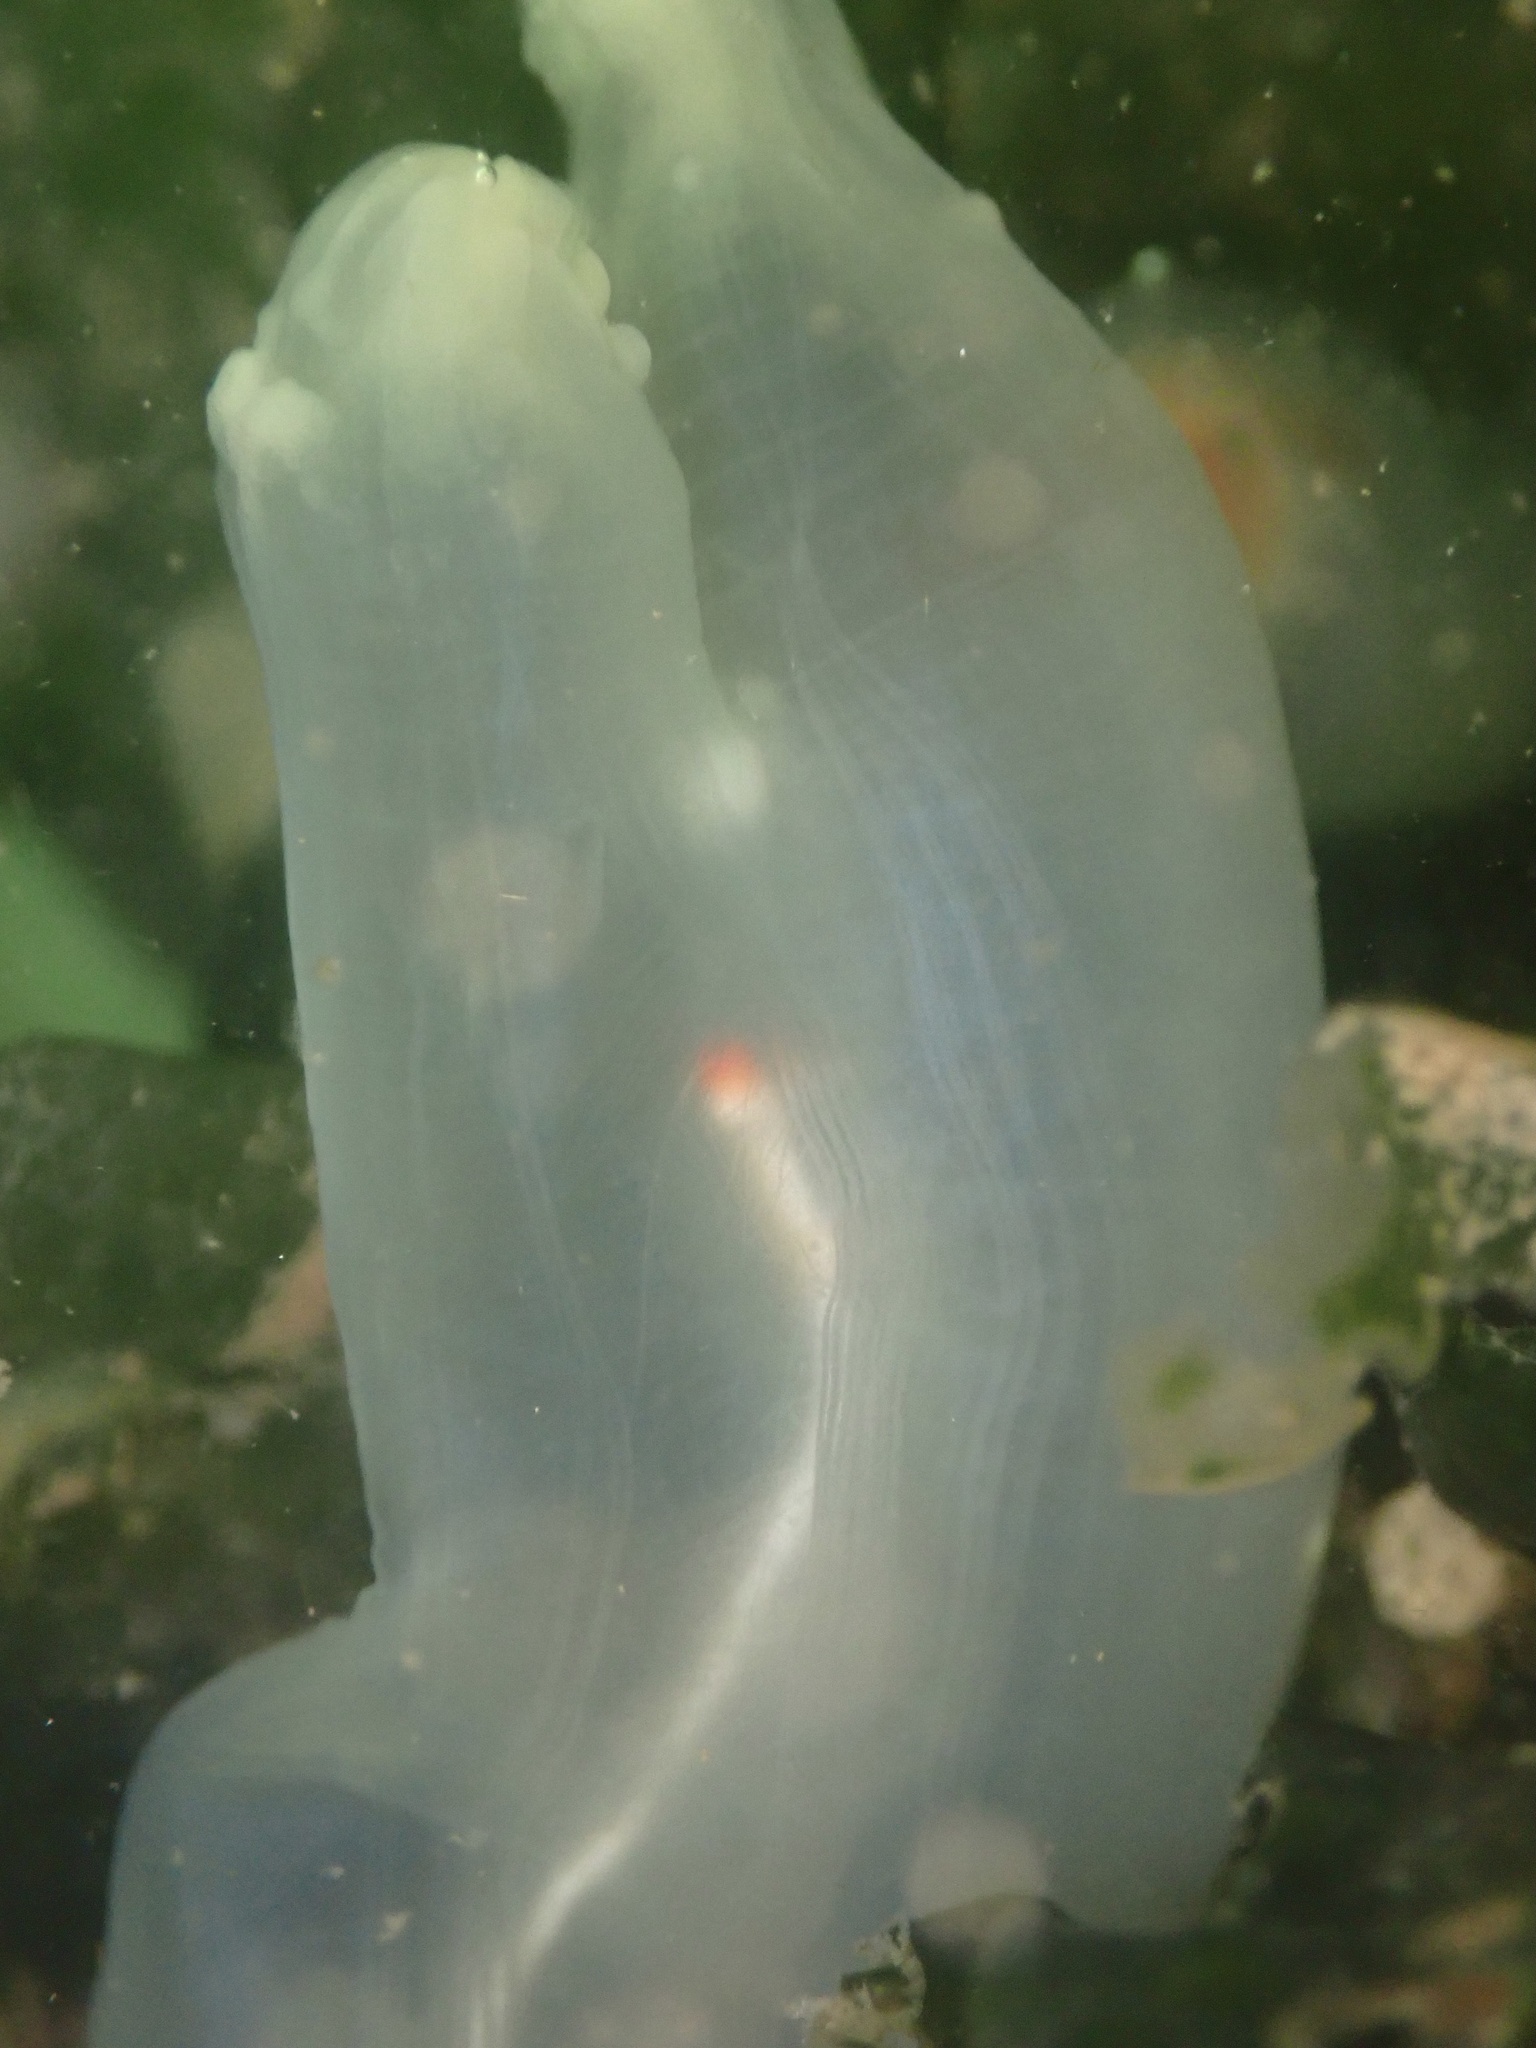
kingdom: Animalia
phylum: Chordata
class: Ascidiacea
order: Phlebobranchia
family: Cionidae
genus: Ciona
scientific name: Ciona robusta
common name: Tunicate
